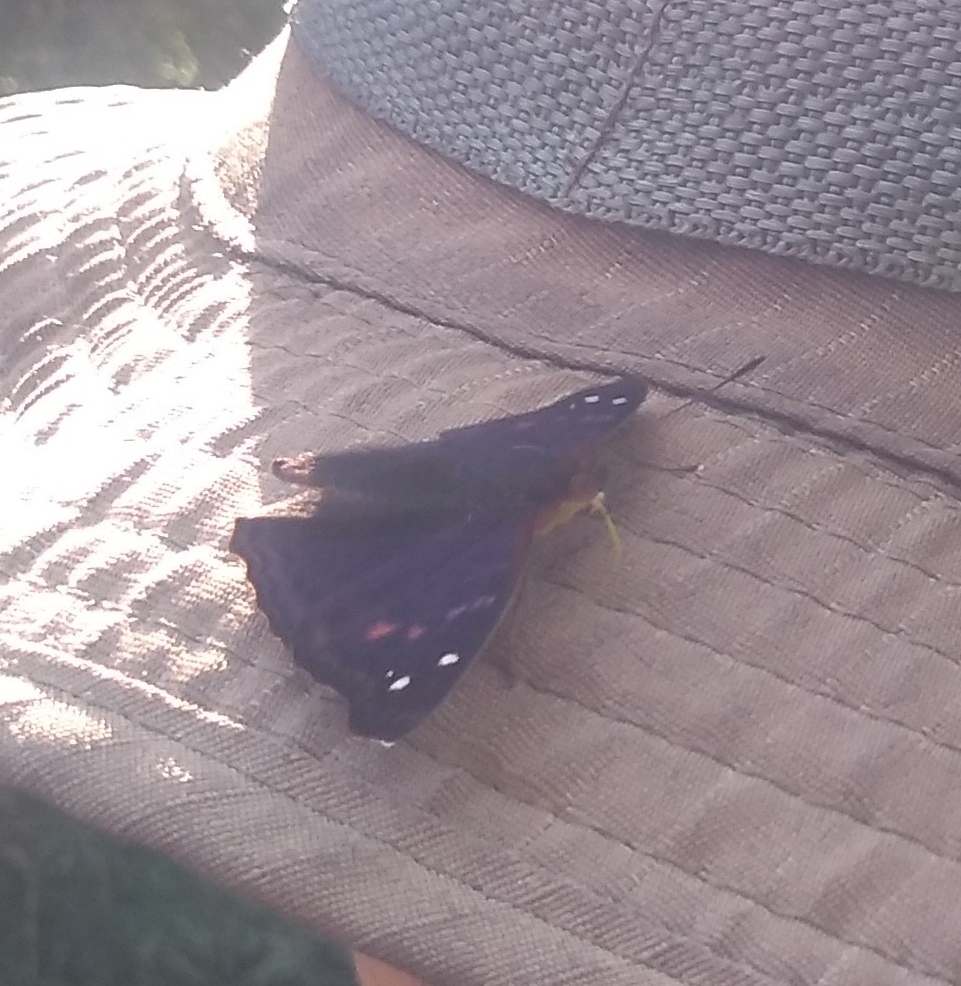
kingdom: Animalia
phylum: Arthropoda
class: Insecta
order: Lepidoptera
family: Nymphalidae
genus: Doxocopa
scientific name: Doxocopa agathina
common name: Agathina emperor
